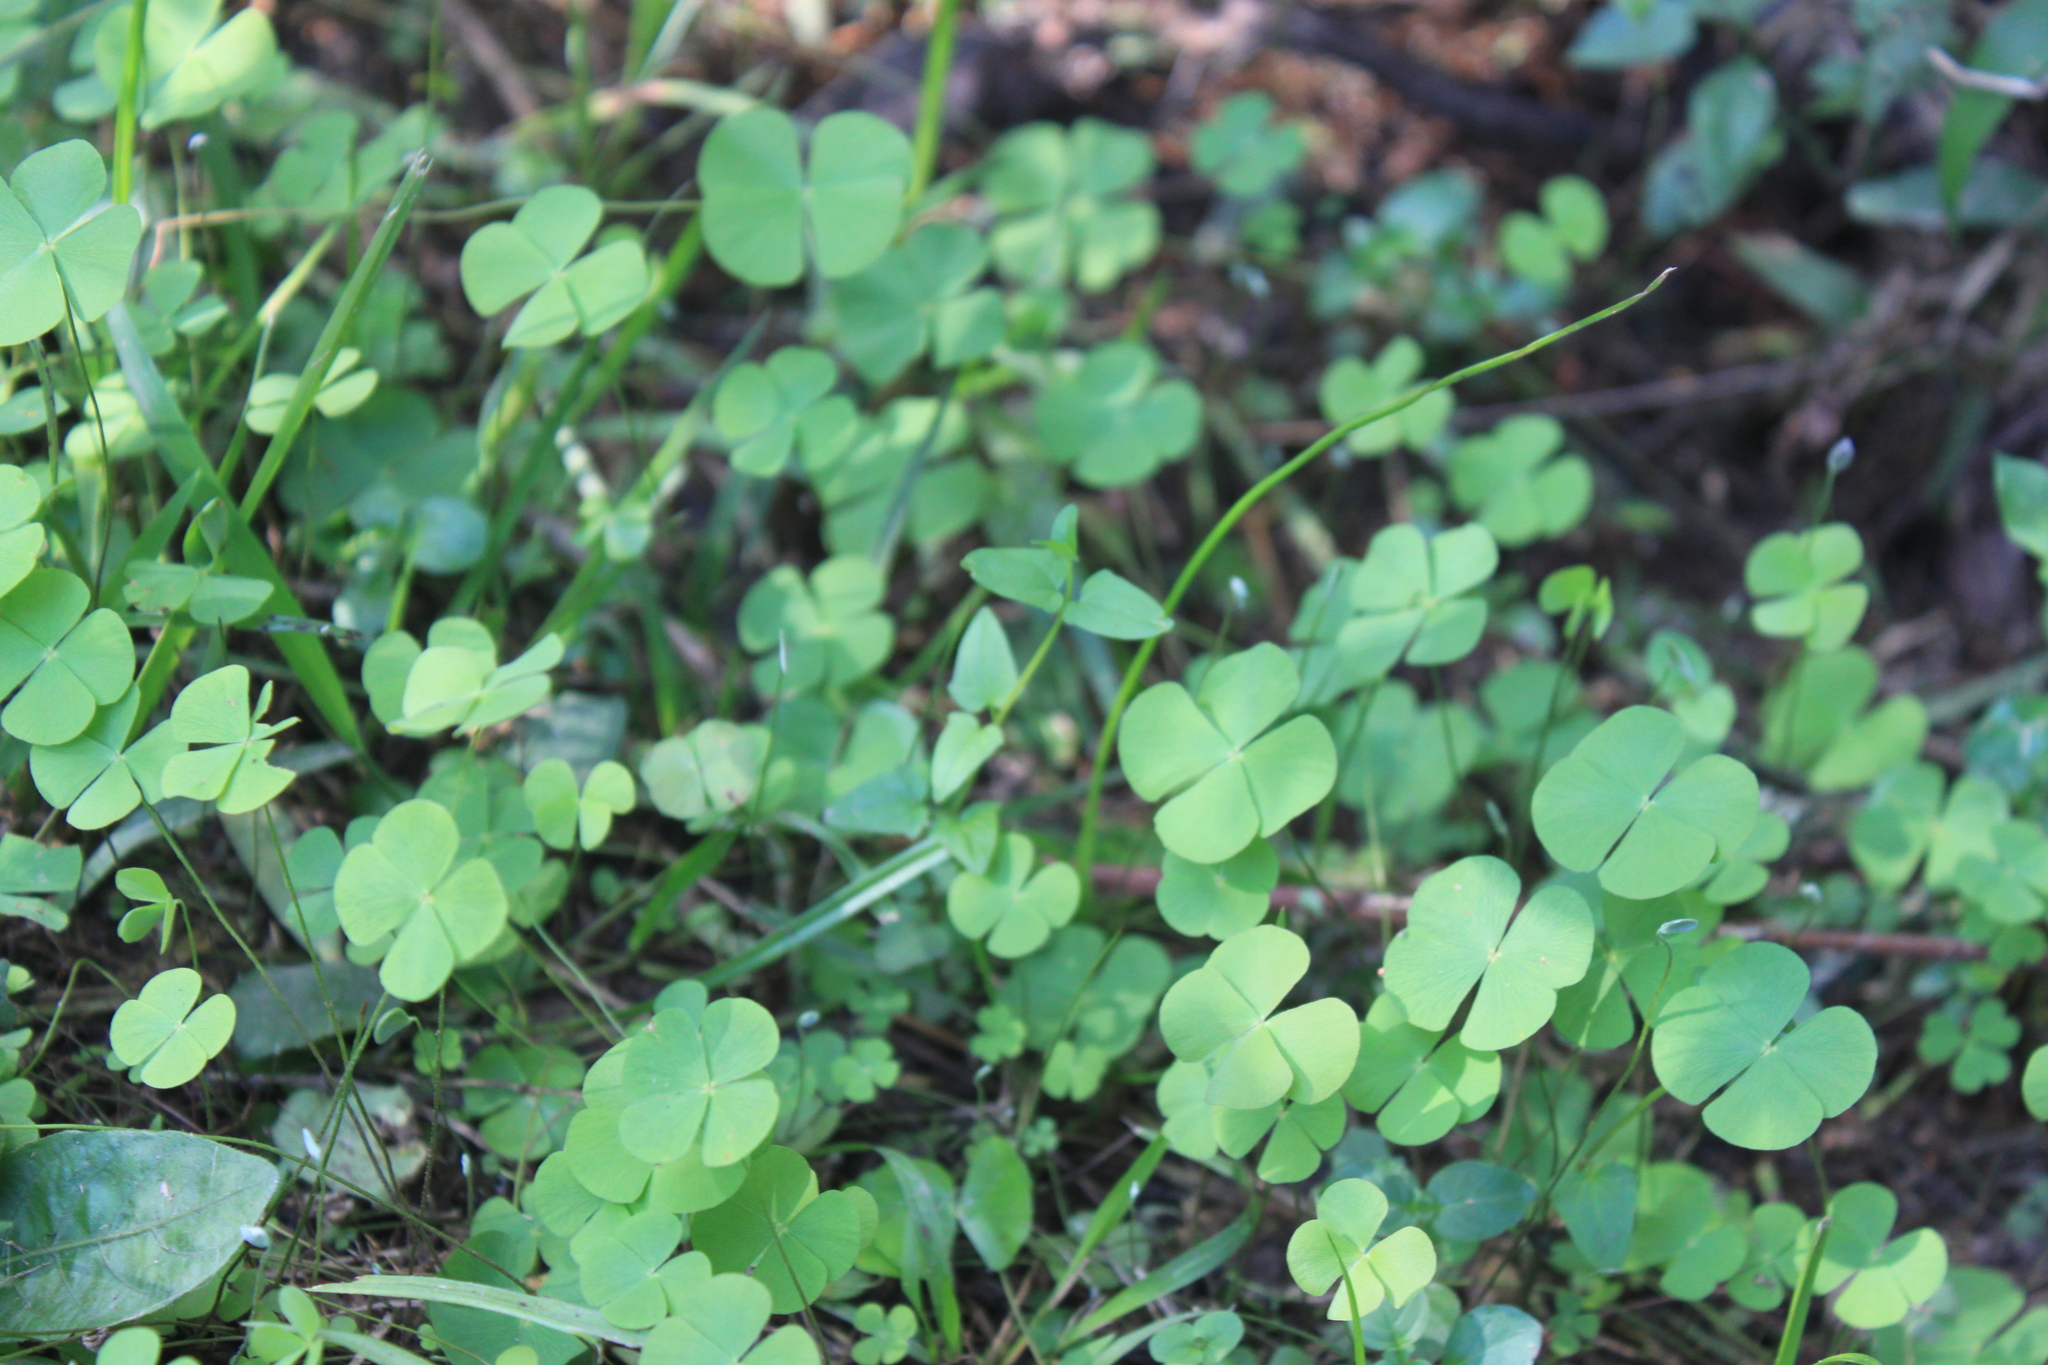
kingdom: Plantae
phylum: Tracheophyta
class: Polypodiopsida
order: Salviniales
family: Marsileaceae
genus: Marsilea
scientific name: Marsilea ancylopoda
